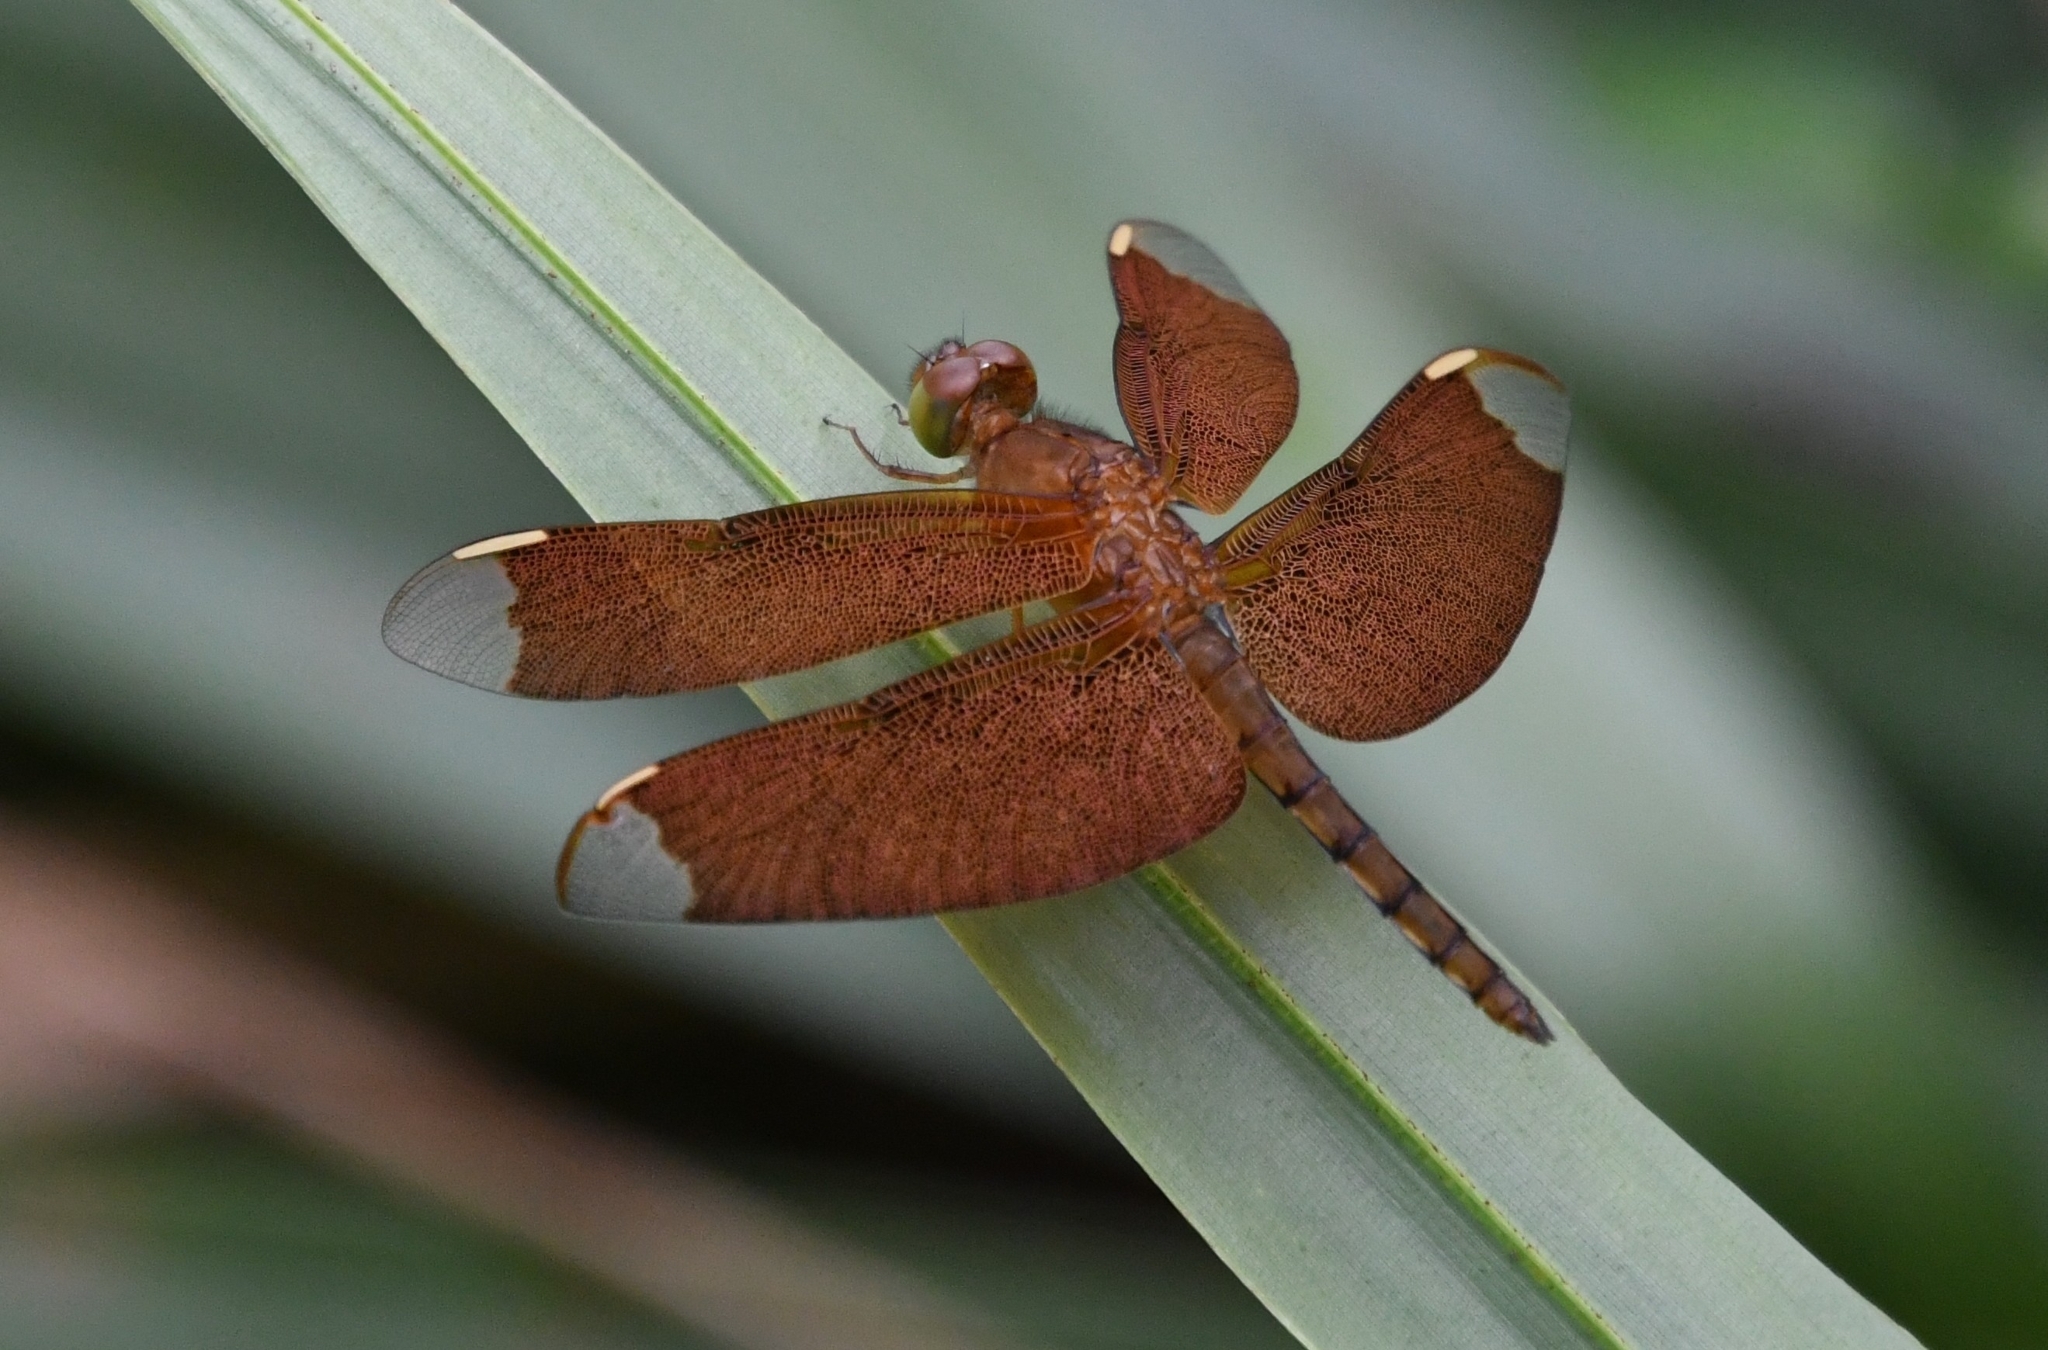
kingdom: Animalia
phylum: Arthropoda
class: Insecta
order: Odonata
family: Libellulidae
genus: Neurothemis
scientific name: Neurothemis fulvia
